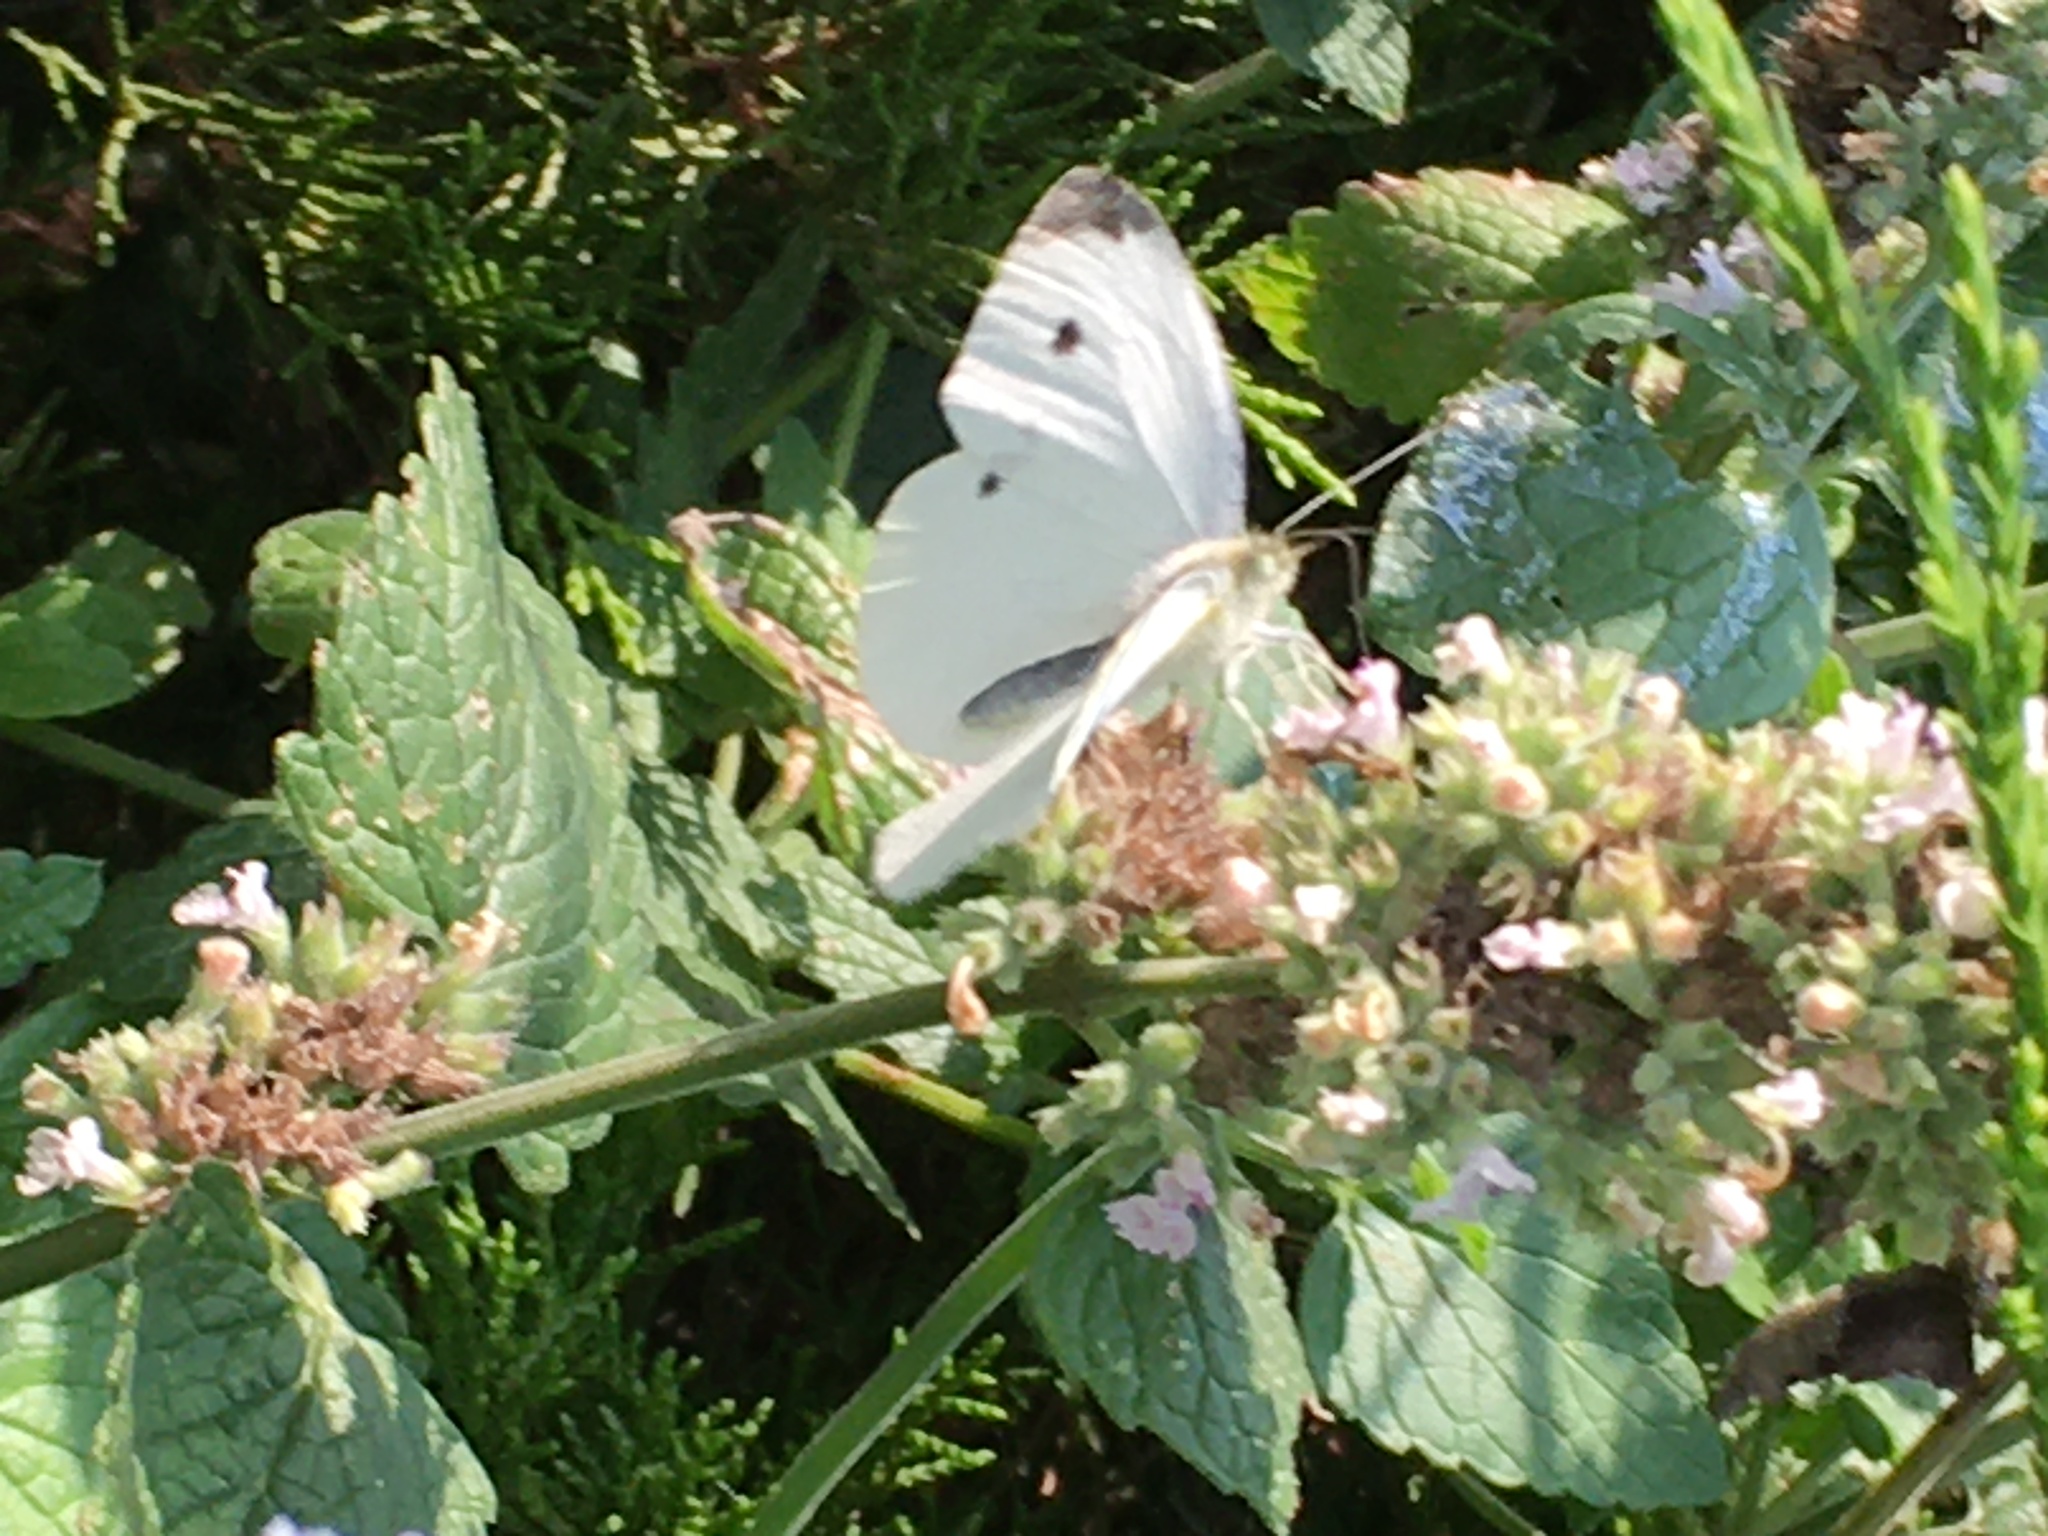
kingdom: Animalia
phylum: Arthropoda
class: Insecta
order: Lepidoptera
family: Pieridae
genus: Pieris
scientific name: Pieris rapae
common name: Small white
